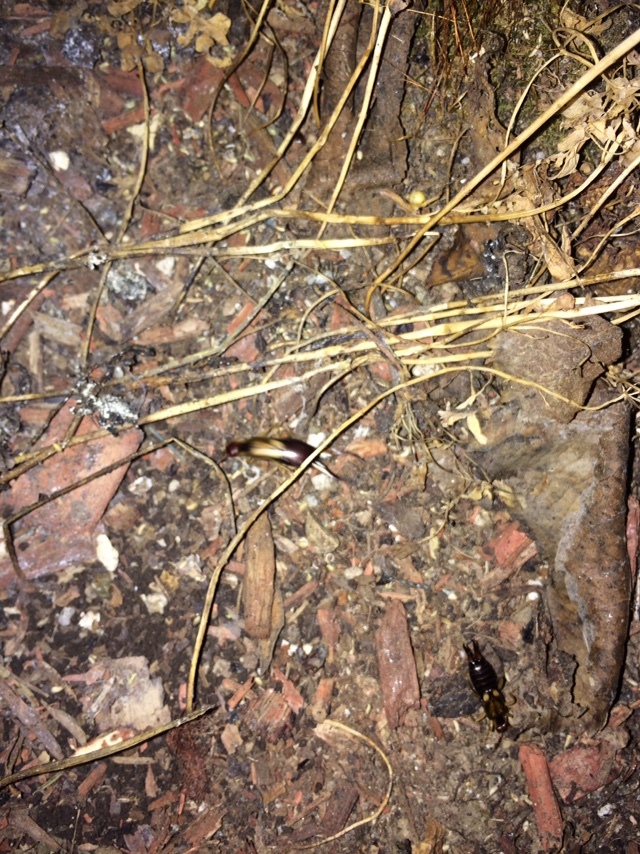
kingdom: Animalia
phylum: Arthropoda
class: Insecta
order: Dermaptera
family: Forficulidae
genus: Forficula
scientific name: Forficula
